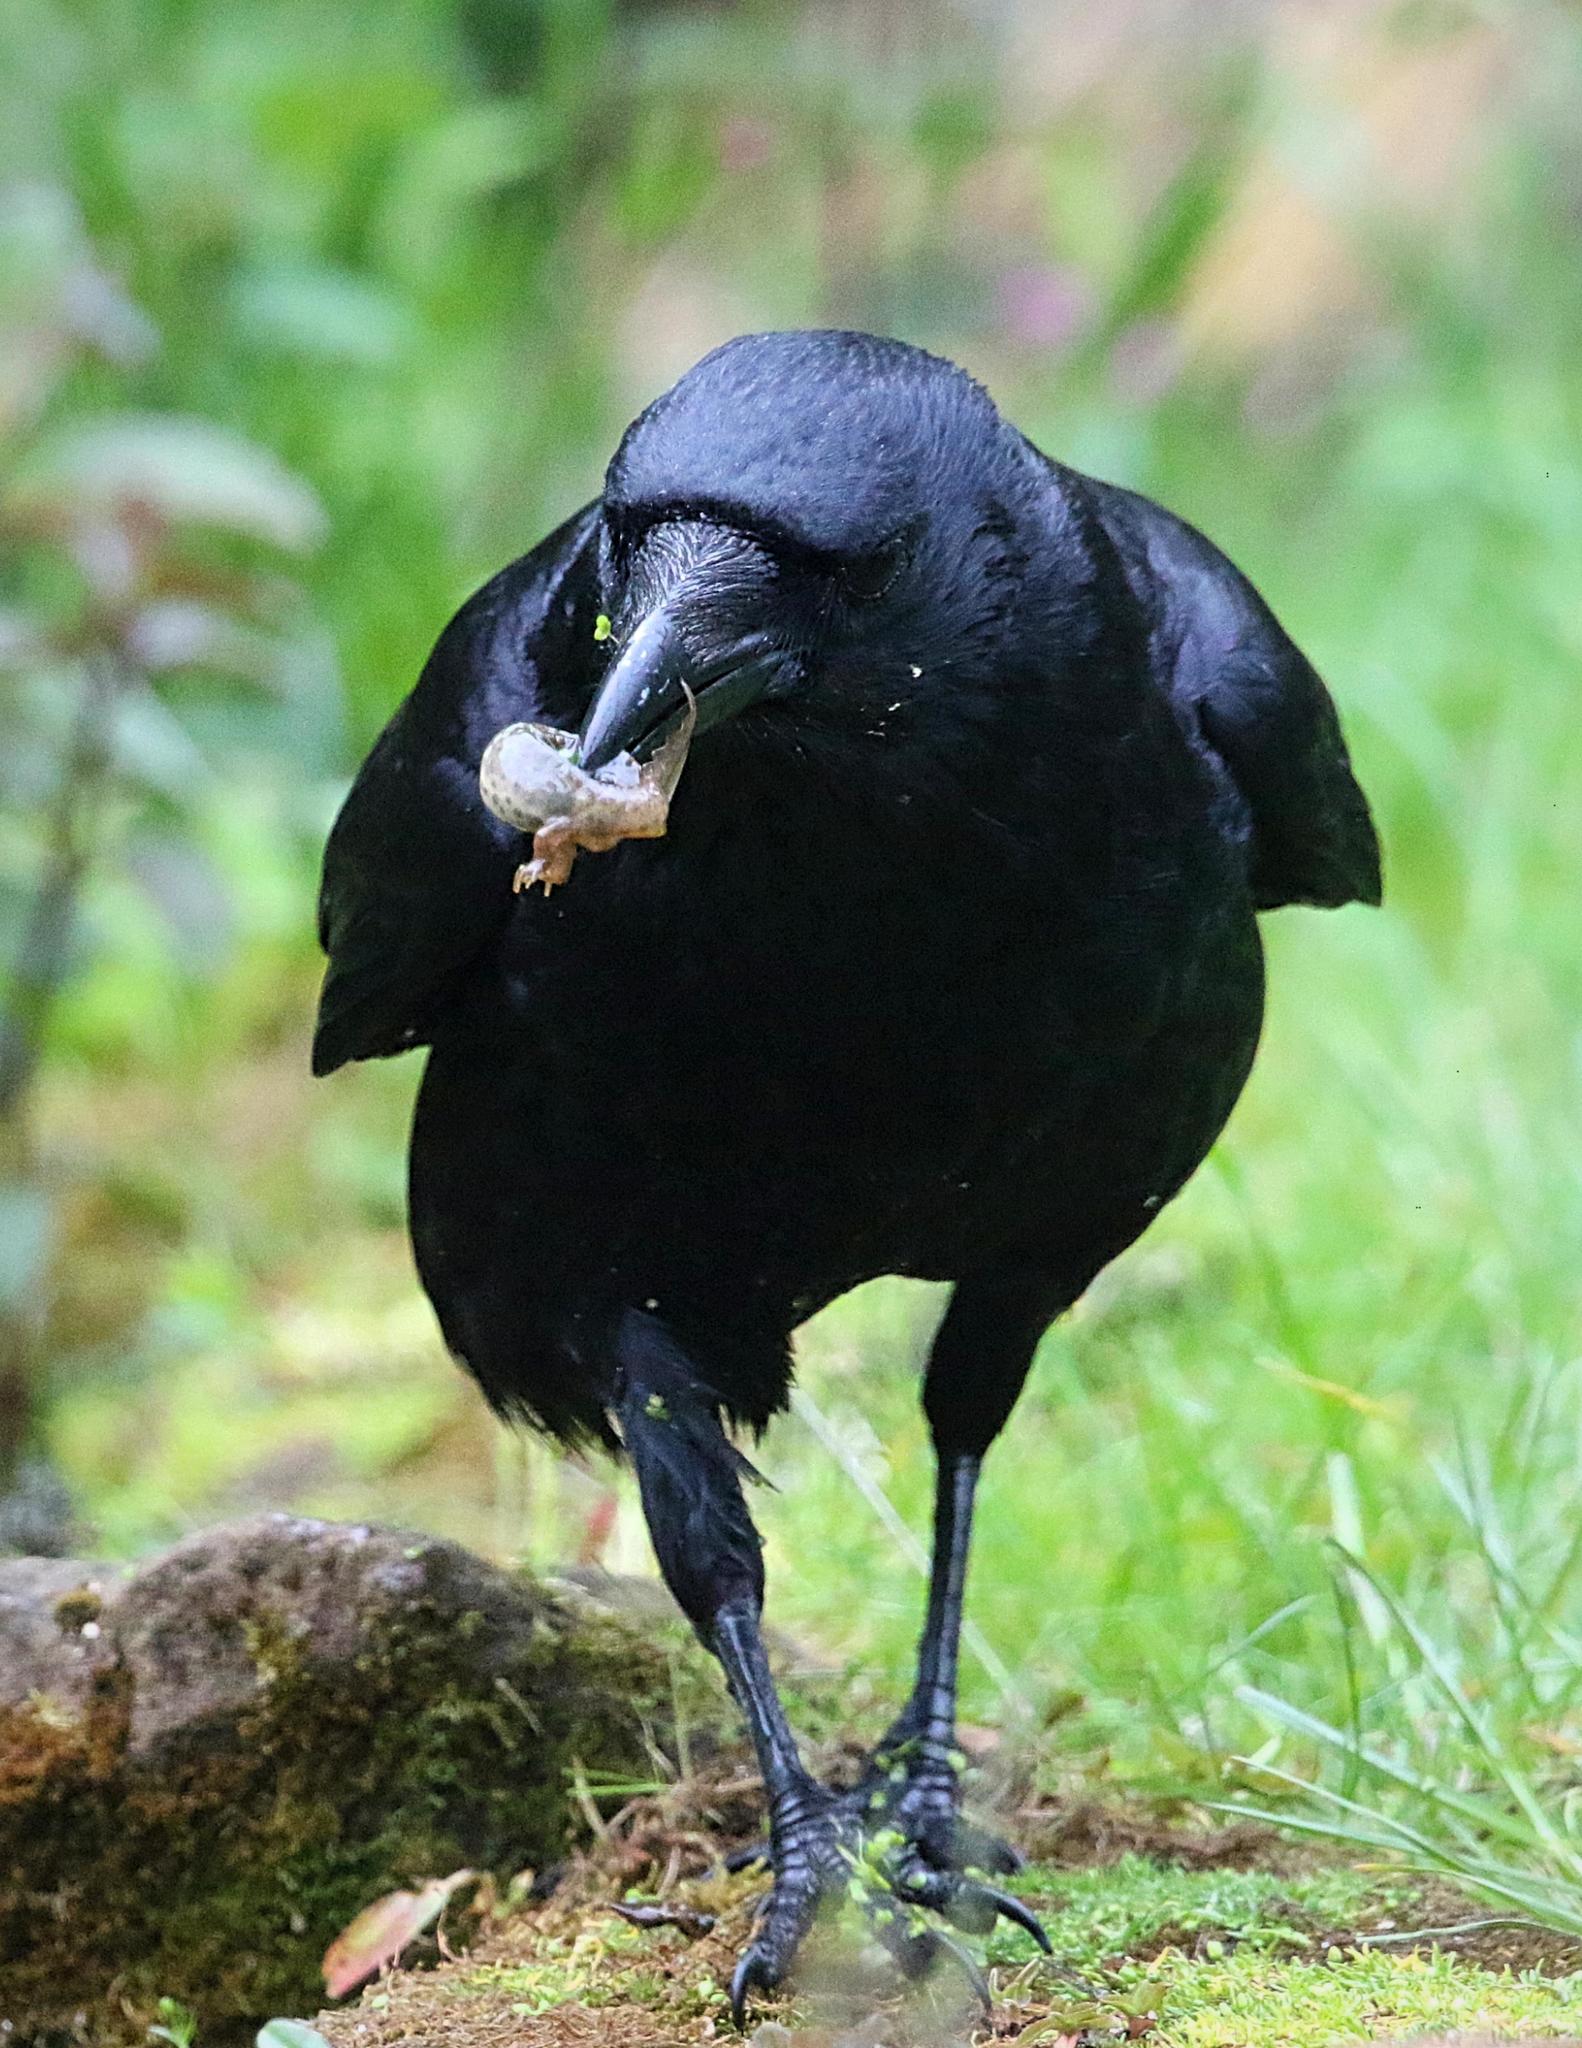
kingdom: Animalia
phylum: Chordata
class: Amphibia
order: Caudata
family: Salamandridae
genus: Lissotriton
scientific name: Lissotriton vulgaris
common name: Smooth newt
